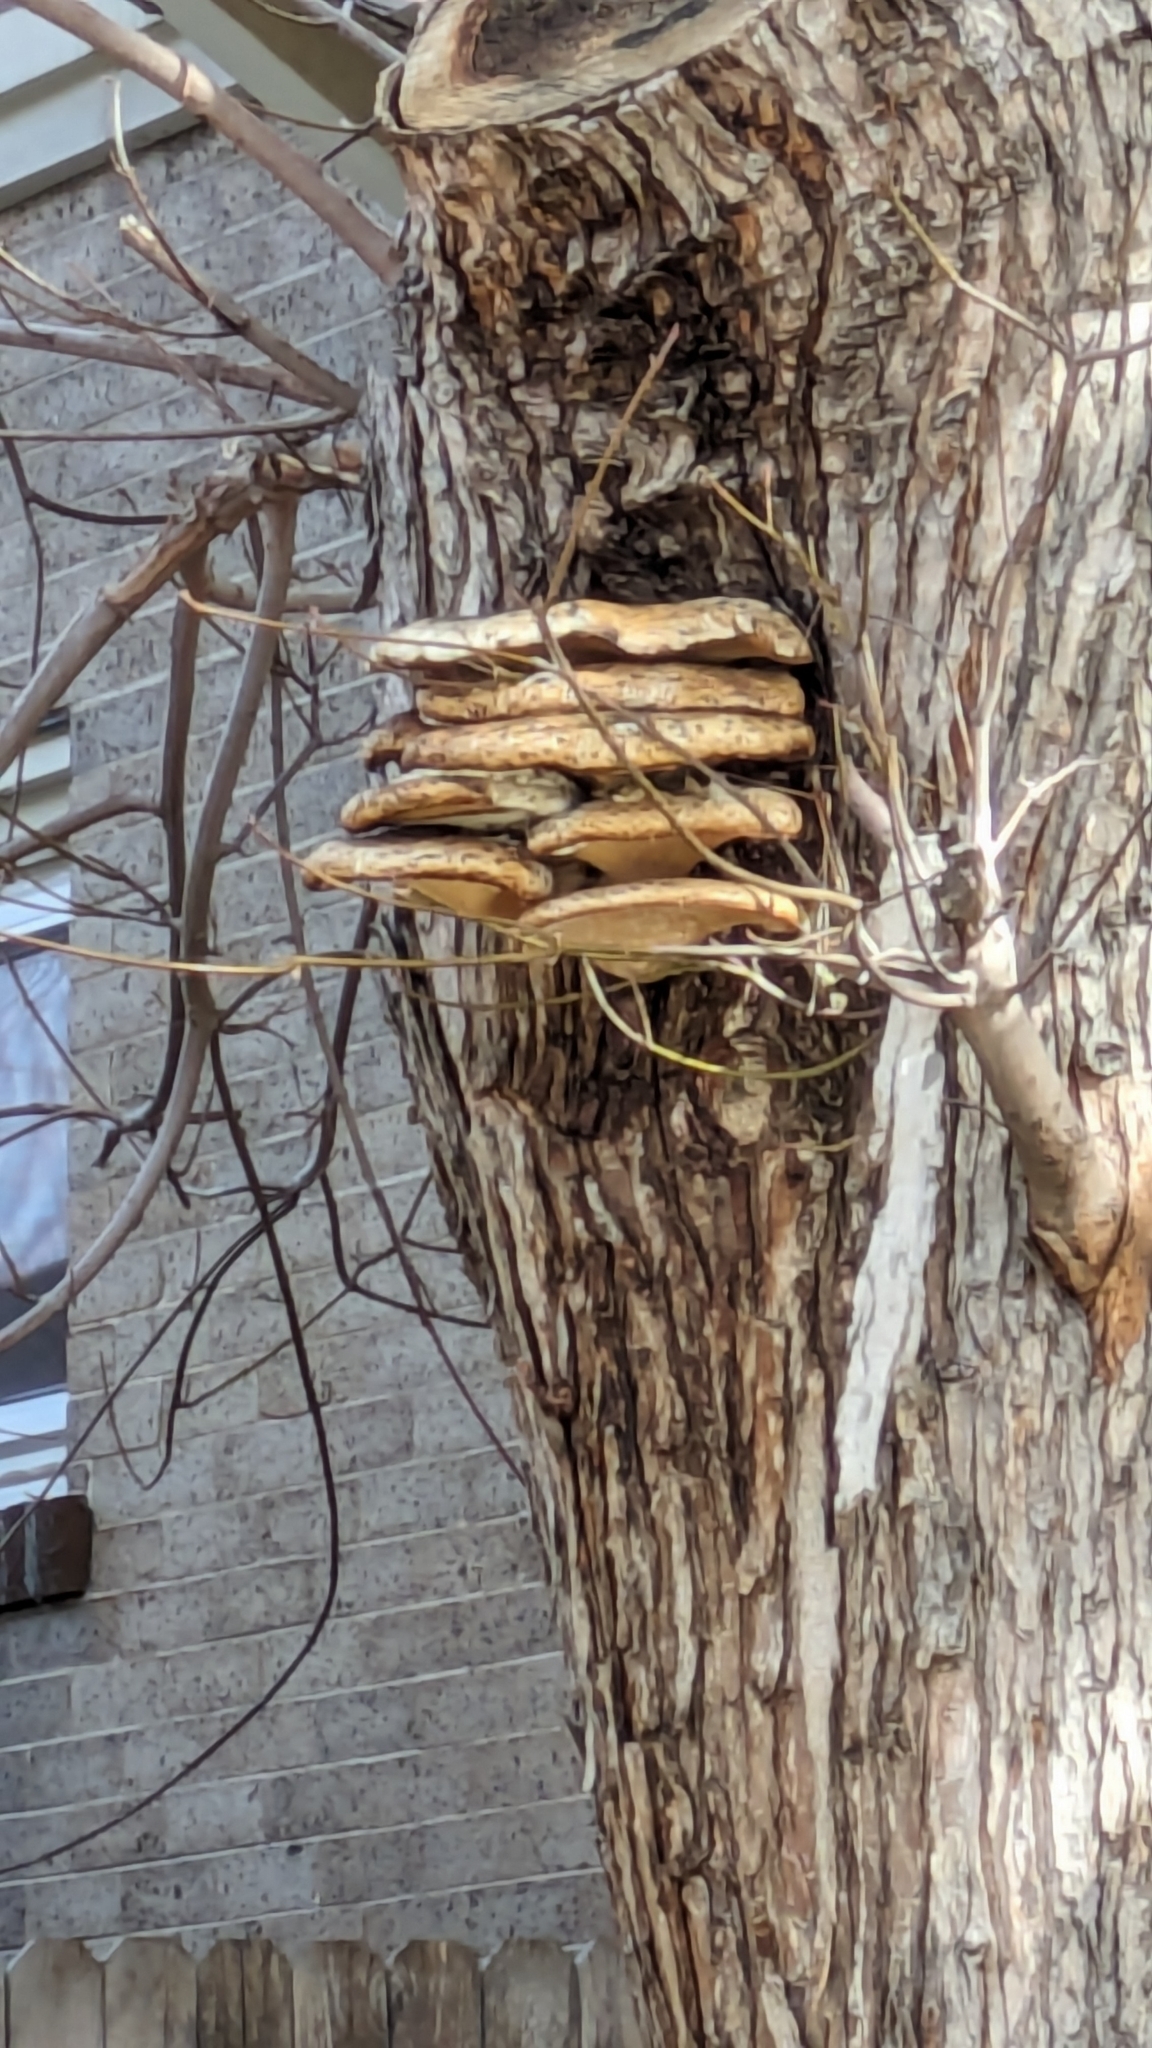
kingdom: Fungi
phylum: Basidiomycota
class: Agaricomycetes
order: Polyporales
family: Polyporaceae
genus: Cerioporus
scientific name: Cerioporus squamosus
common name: Dryad's saddle
